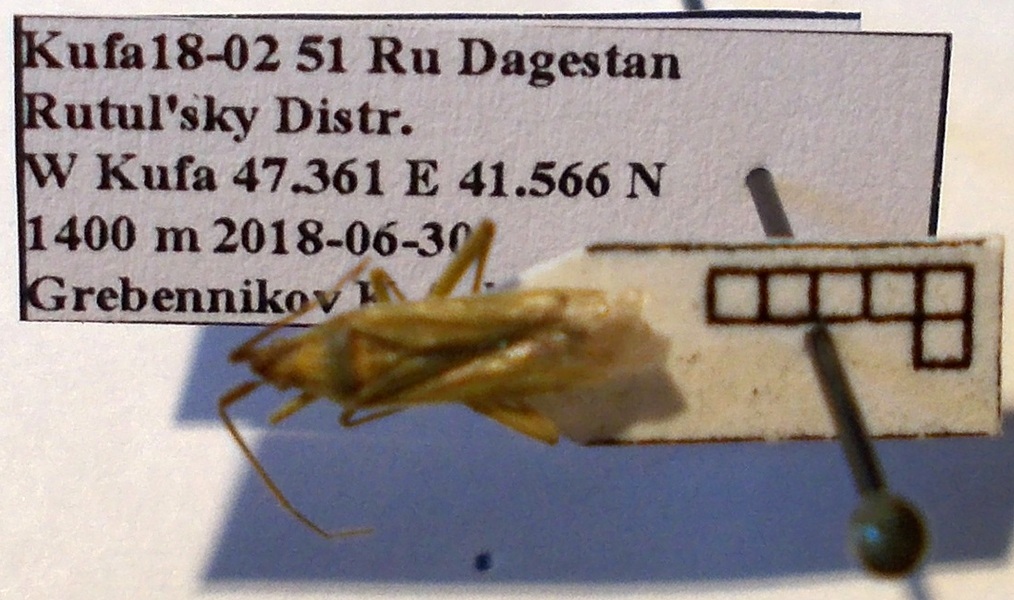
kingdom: Animalia
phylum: Arthropoda
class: Insecta
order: Hemiptera
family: Miridae
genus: Stenodema
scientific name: Stenodema laevigata
